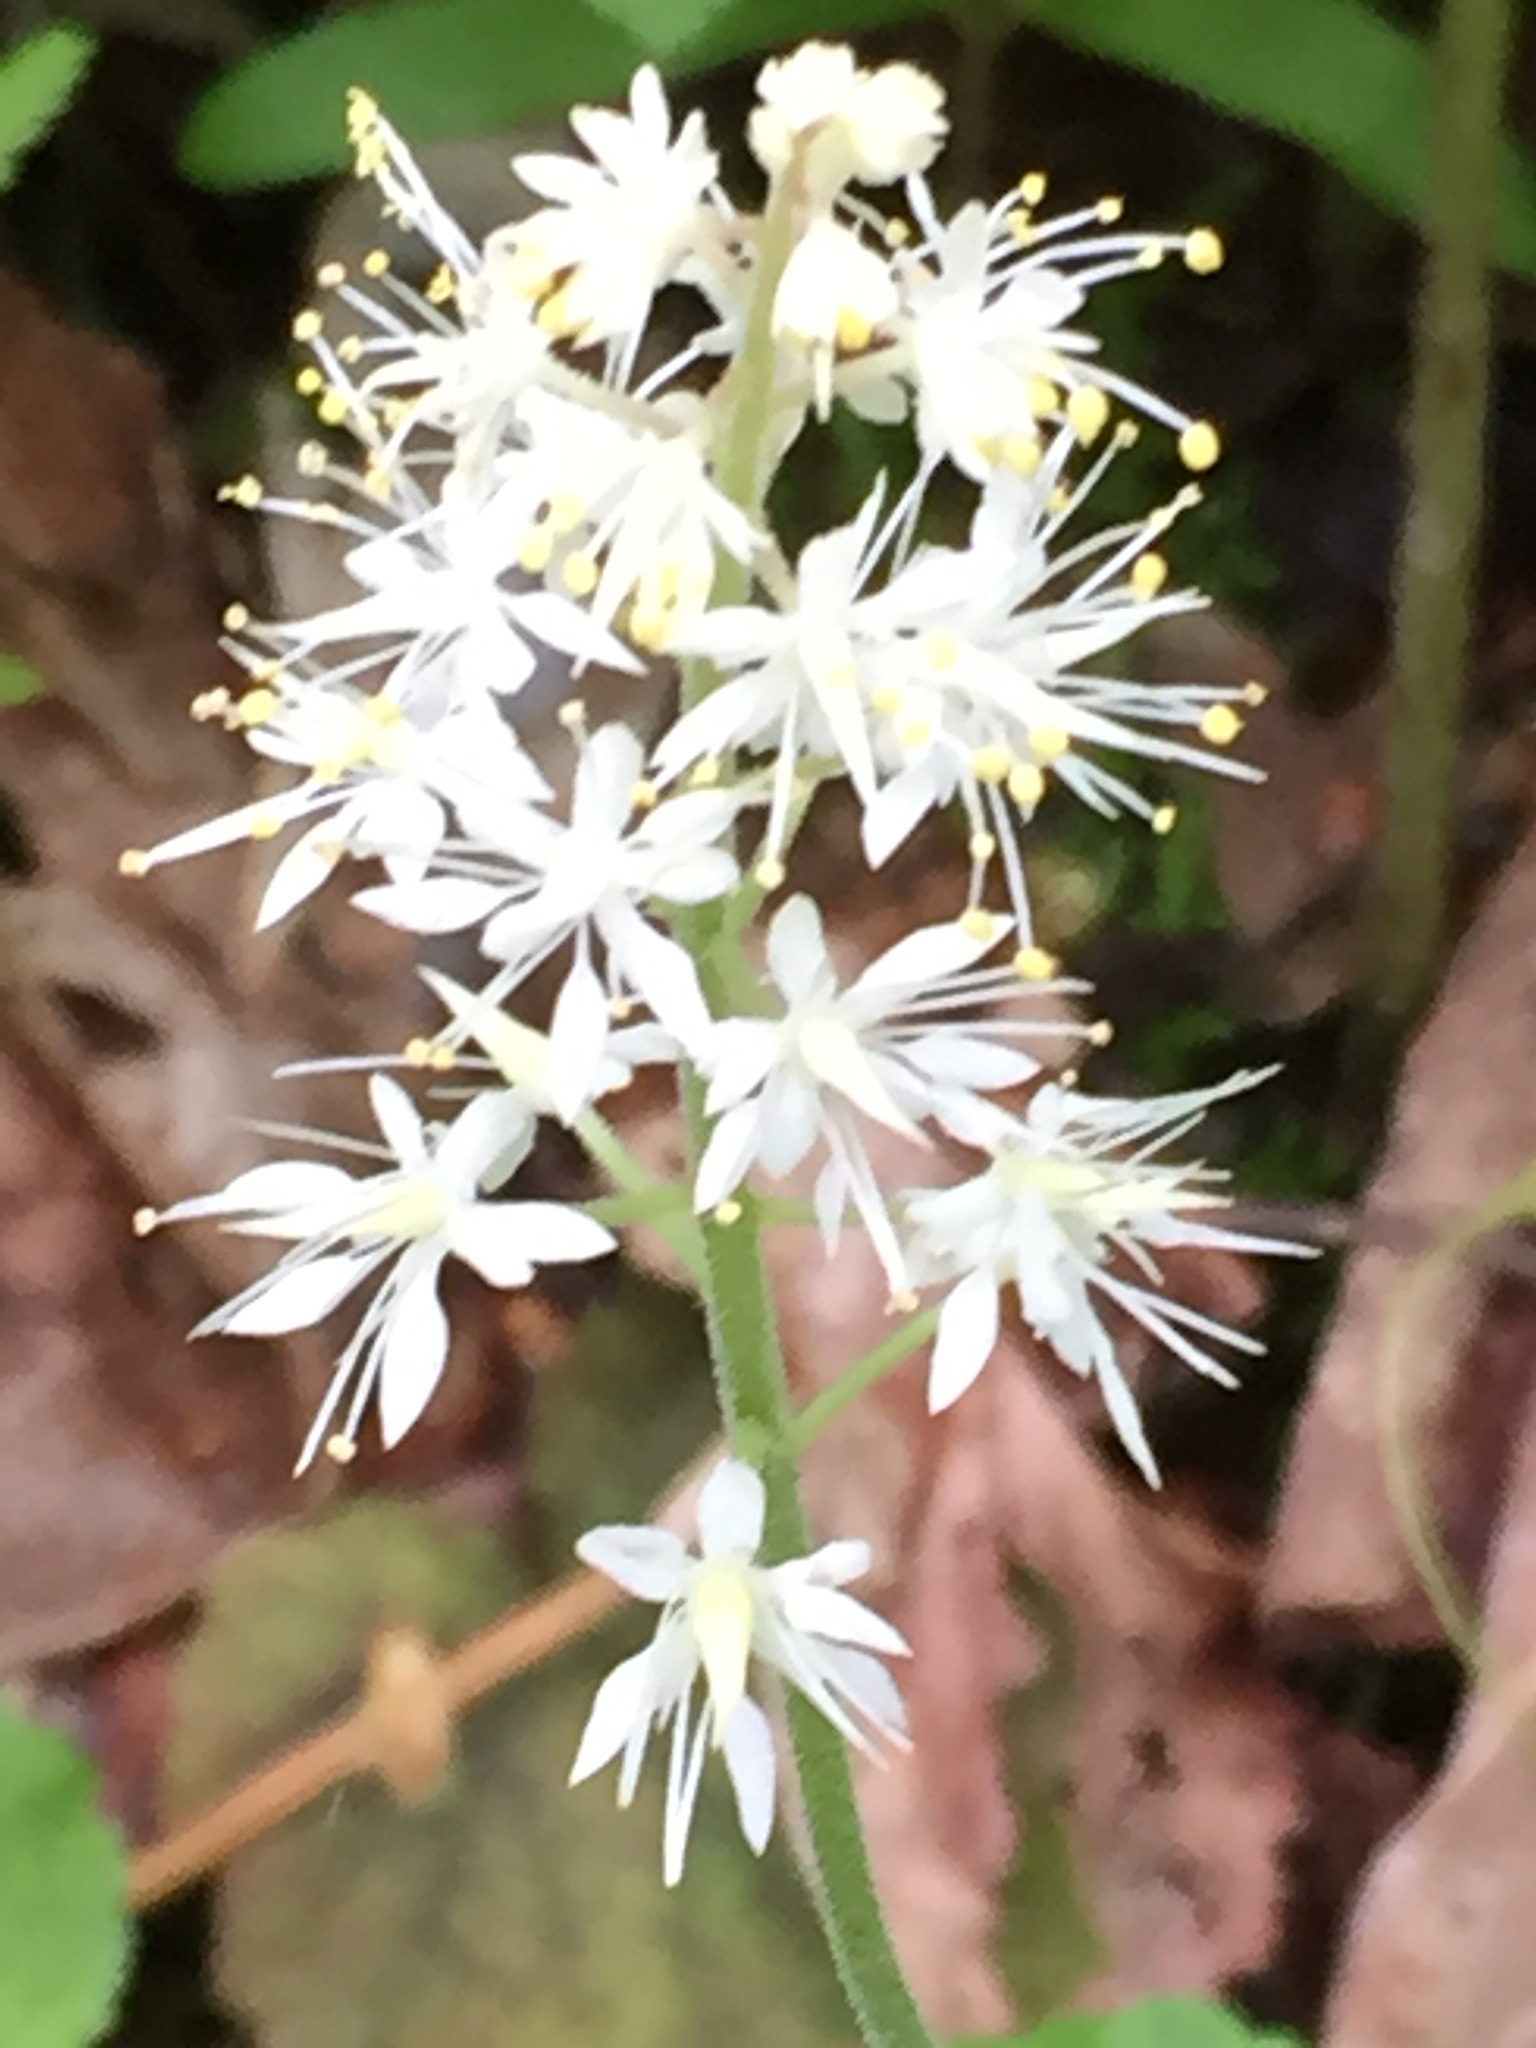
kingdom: Plantae
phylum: Tracheophyta
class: Magnoliopsida
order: Saxifragales
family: Saxifragaceae
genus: Tiarella
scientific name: Tiarella stolonifera
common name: Stoloniferous foamflower
